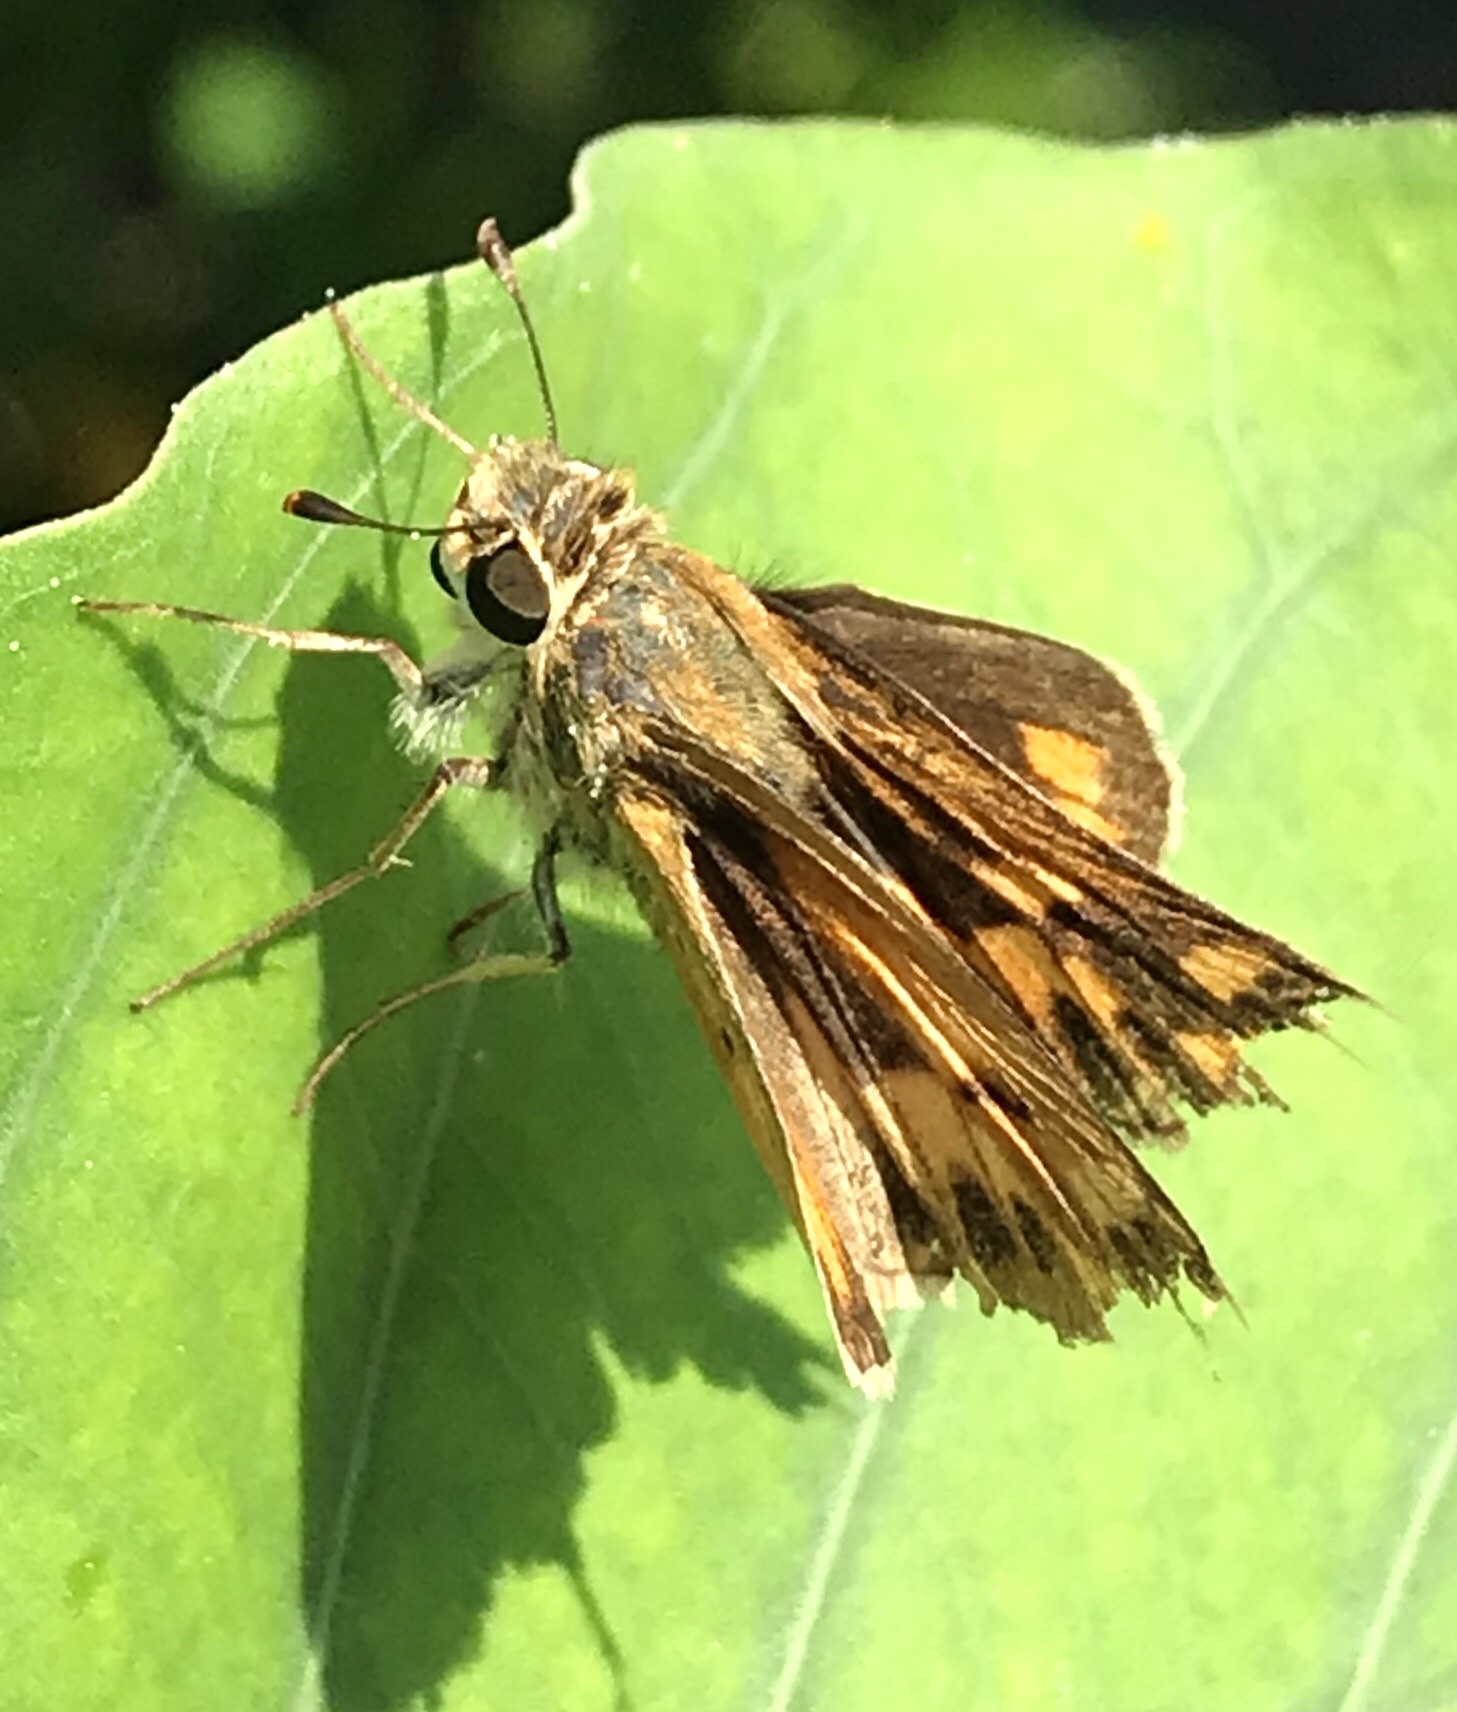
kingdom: Animalia
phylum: Arthropoda
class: Insecta
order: Lepidoptera
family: Hesperiidae
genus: Hylephila
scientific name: Hylephila phyleus
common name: Fiery skipper
